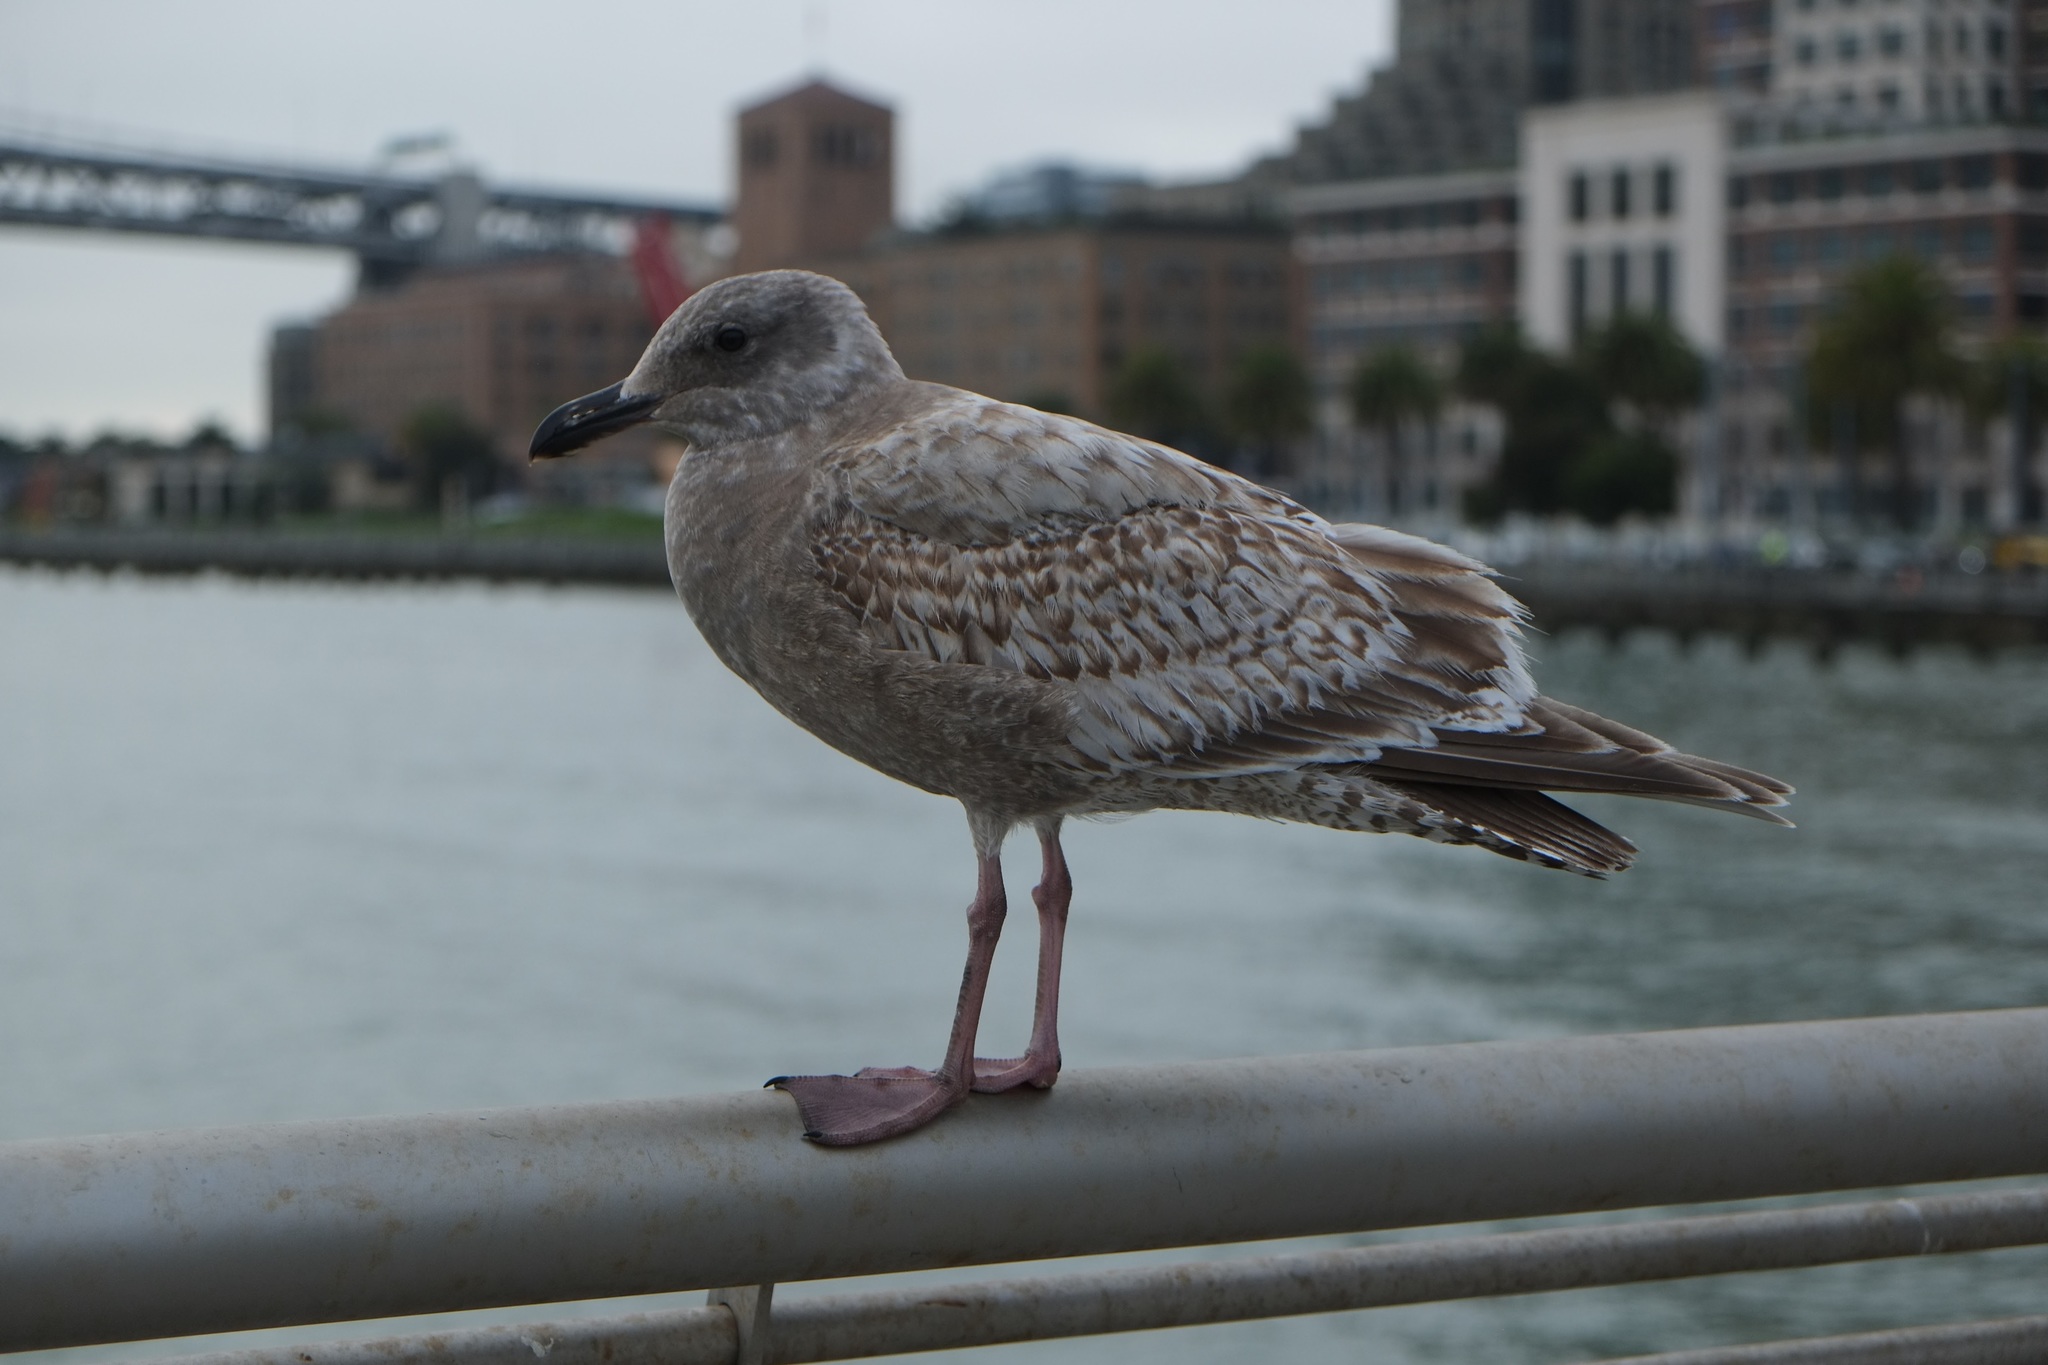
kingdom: Animalia
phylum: Chordata
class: Aves
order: Charadriiformes
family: Laridae
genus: Larus
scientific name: Larus
